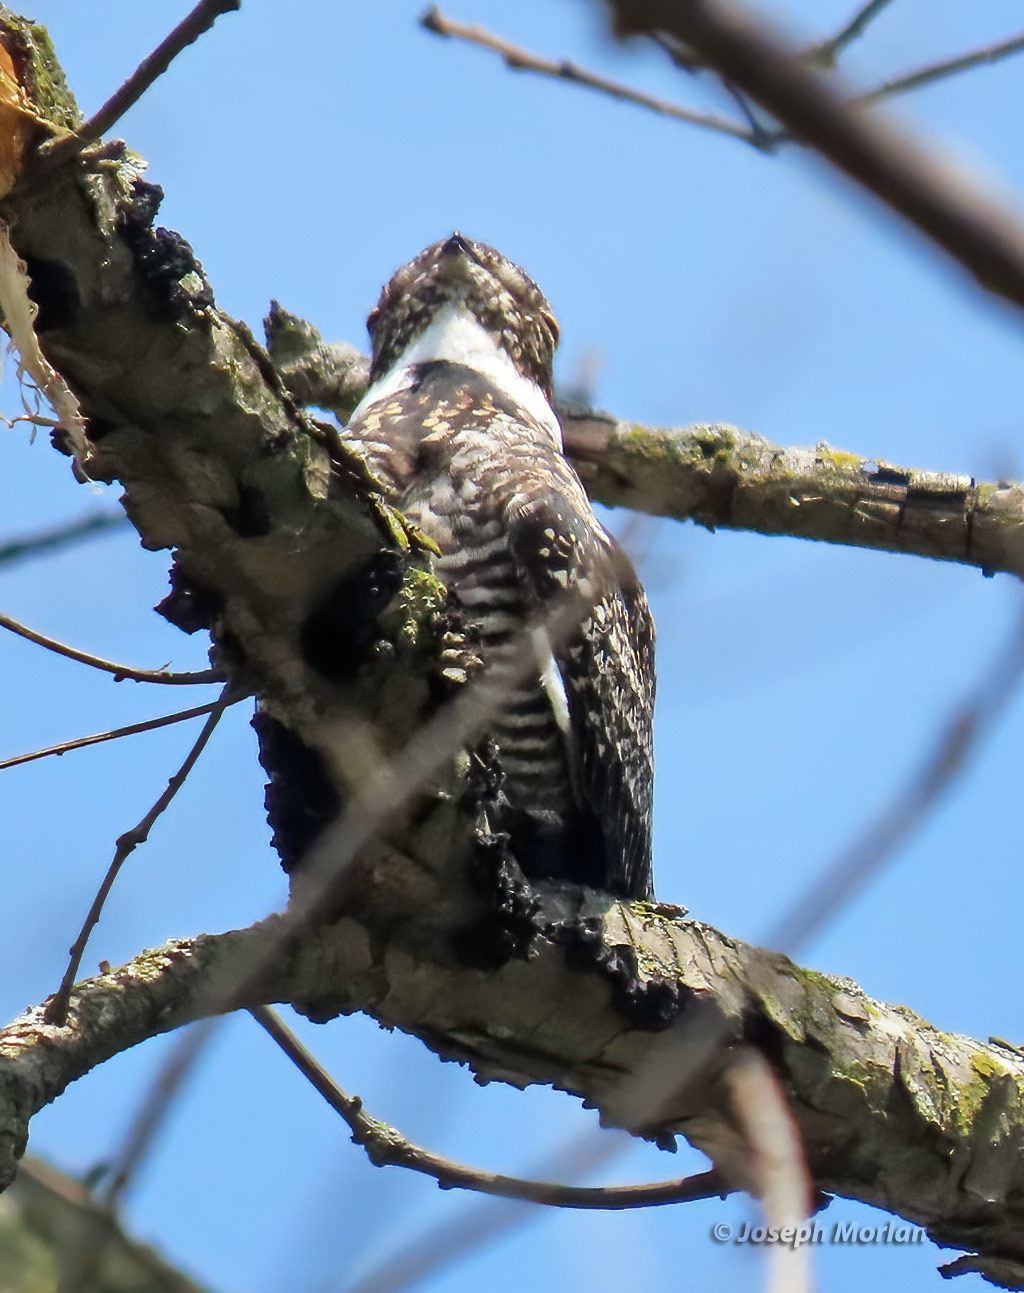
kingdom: Animalia
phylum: Chordata
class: Aves
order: Caprimulgiformes
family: Caprimulgidae
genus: Chordeiles
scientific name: Chordeiles minor
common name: Common nighthawk
